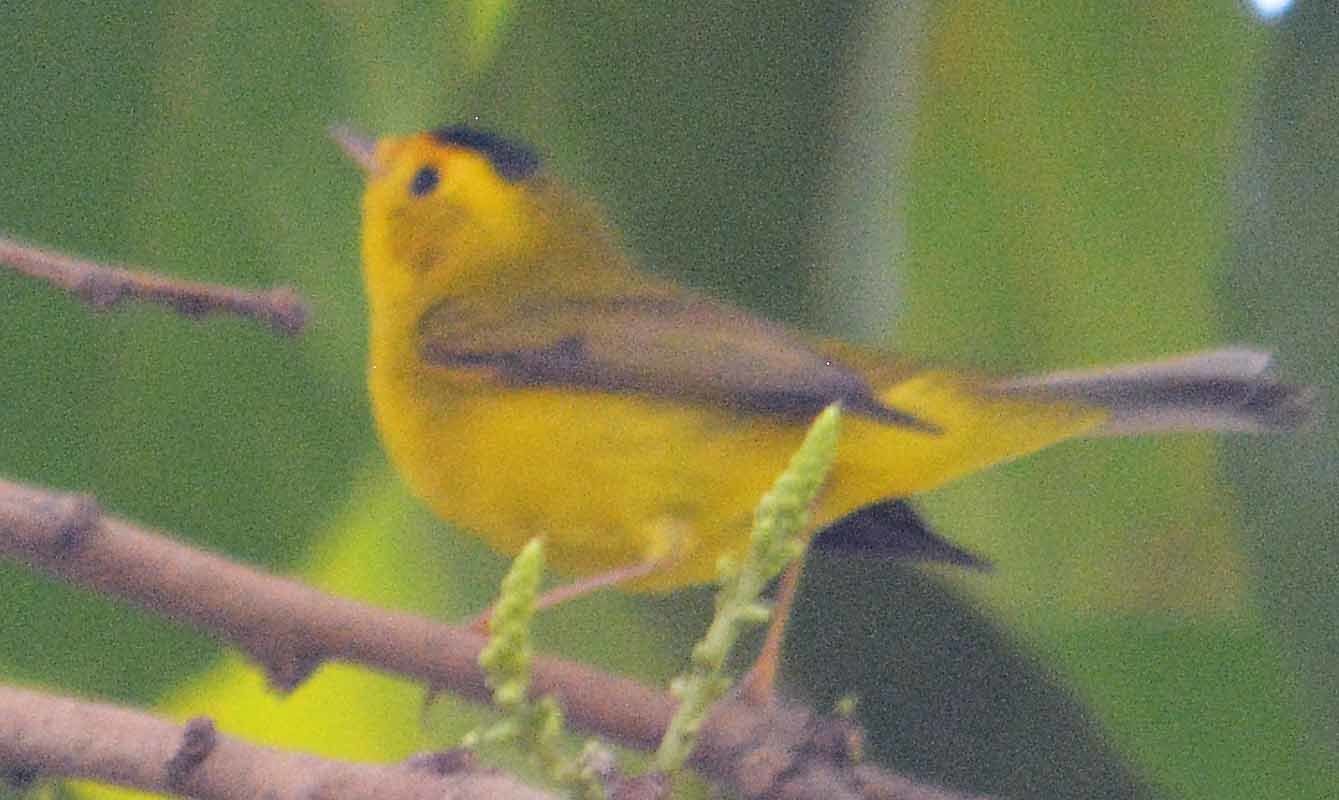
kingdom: Animalia
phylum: Chordata
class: Aves
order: Passeriformes
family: Parulidae
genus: Cardellina
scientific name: Cardellina pusilla
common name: Wilson's warbler
